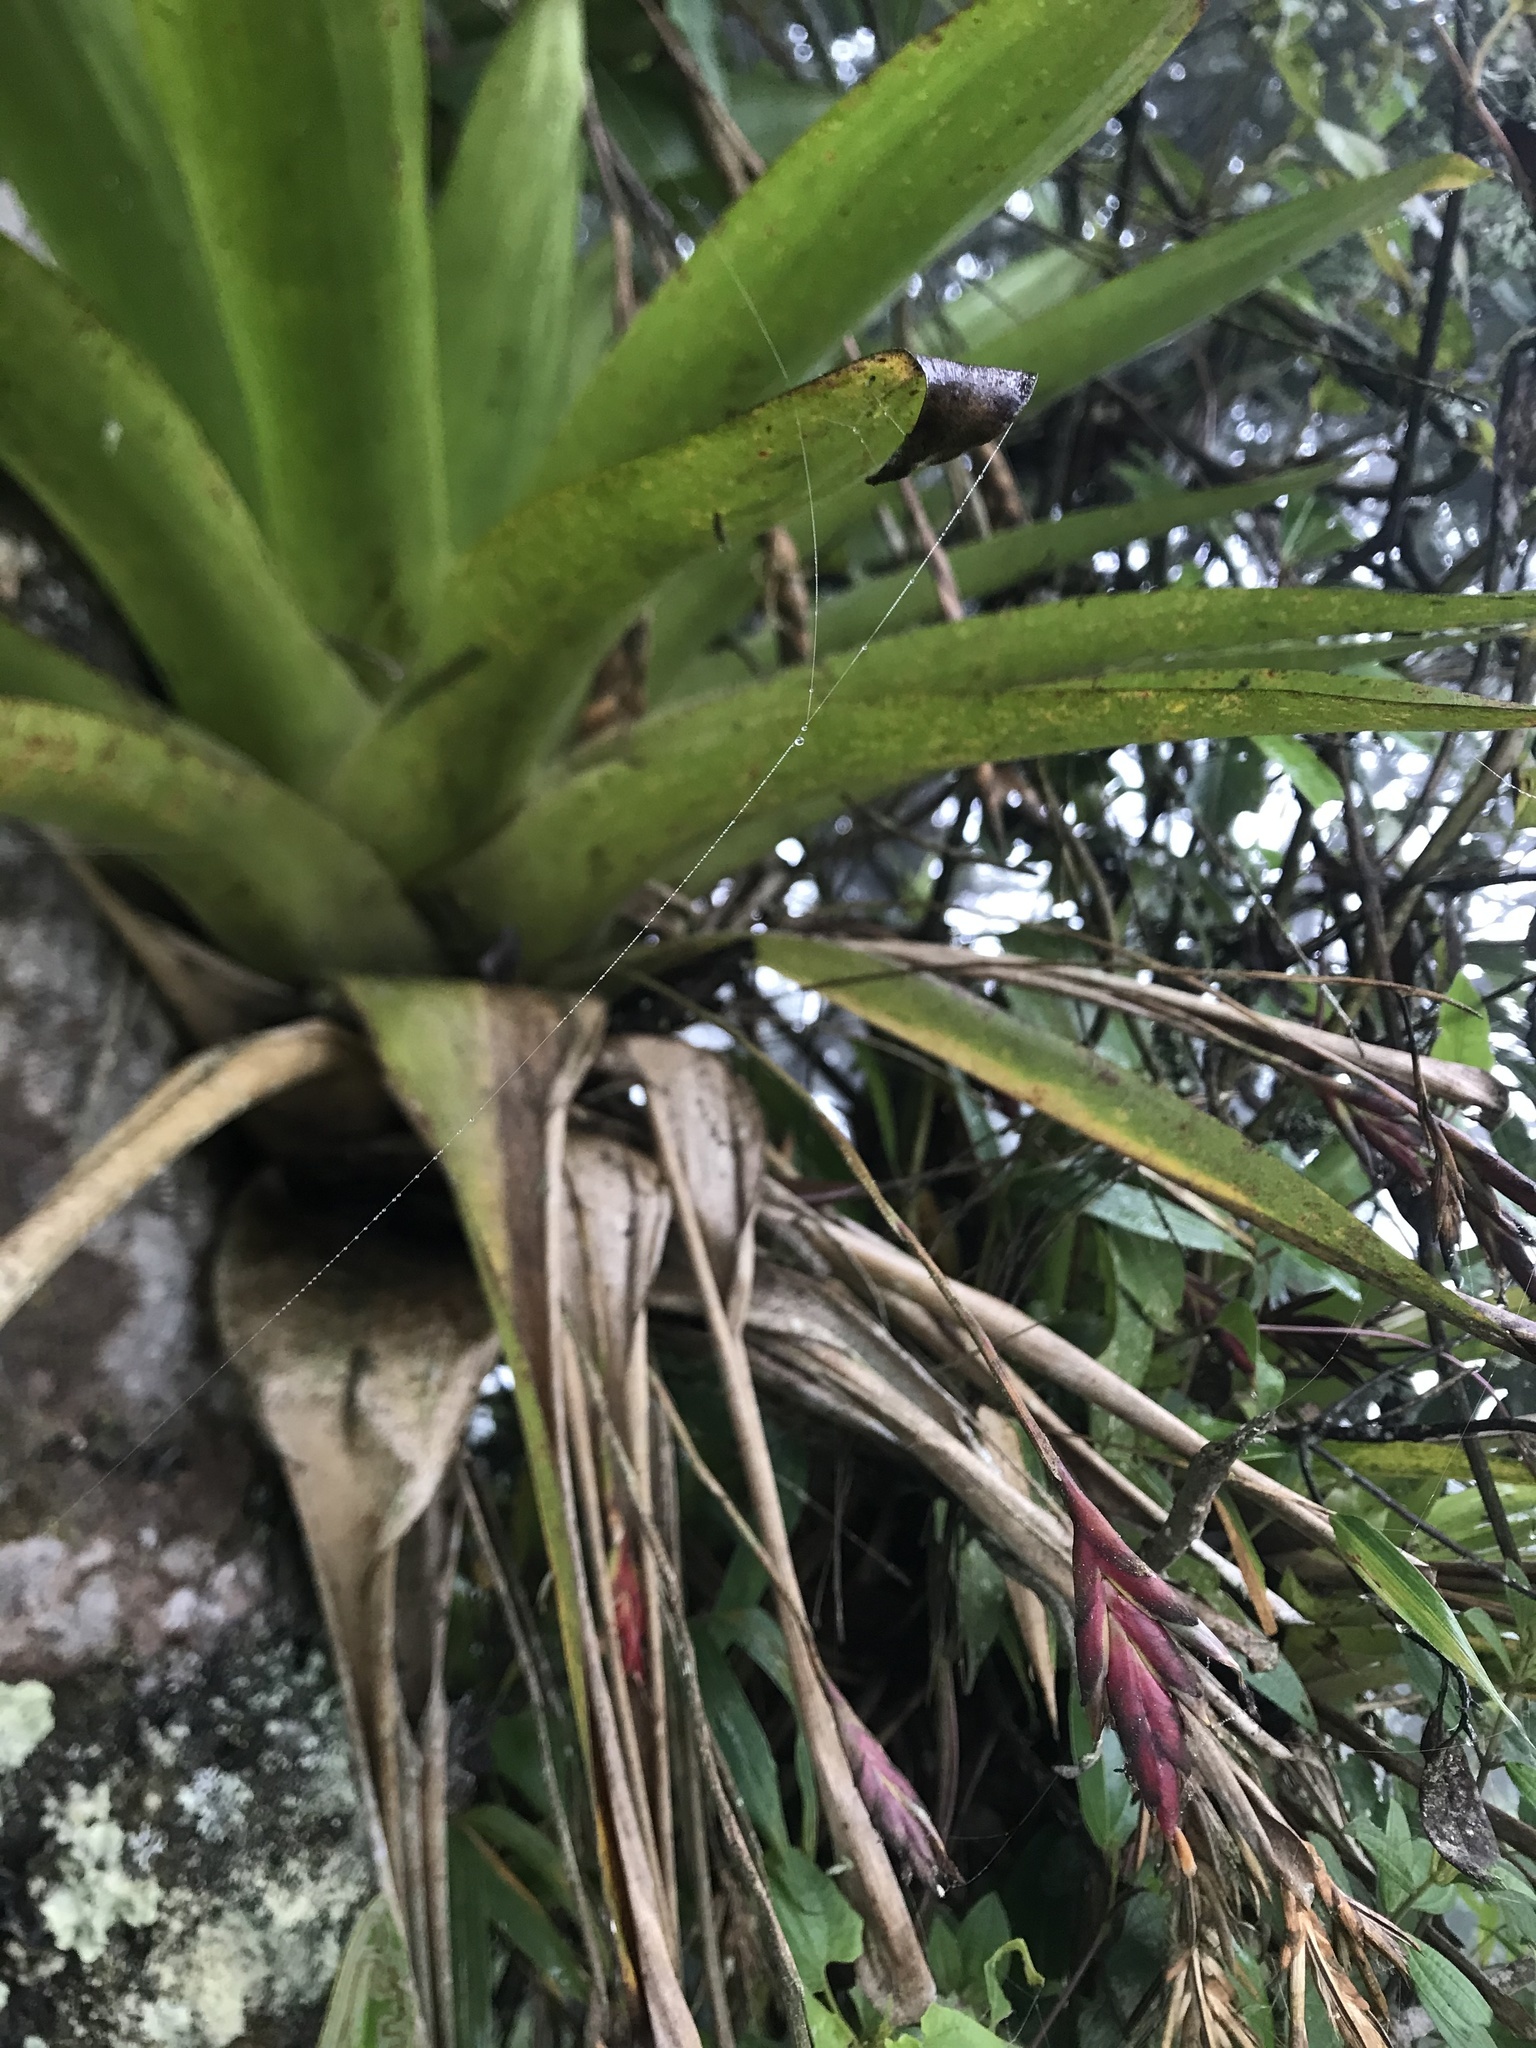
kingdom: Plantae
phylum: Tracheophyta
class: Liliopsida
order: Poales
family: Bromeliaceae
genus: Tillandsia
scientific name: Tillandsia complanata
